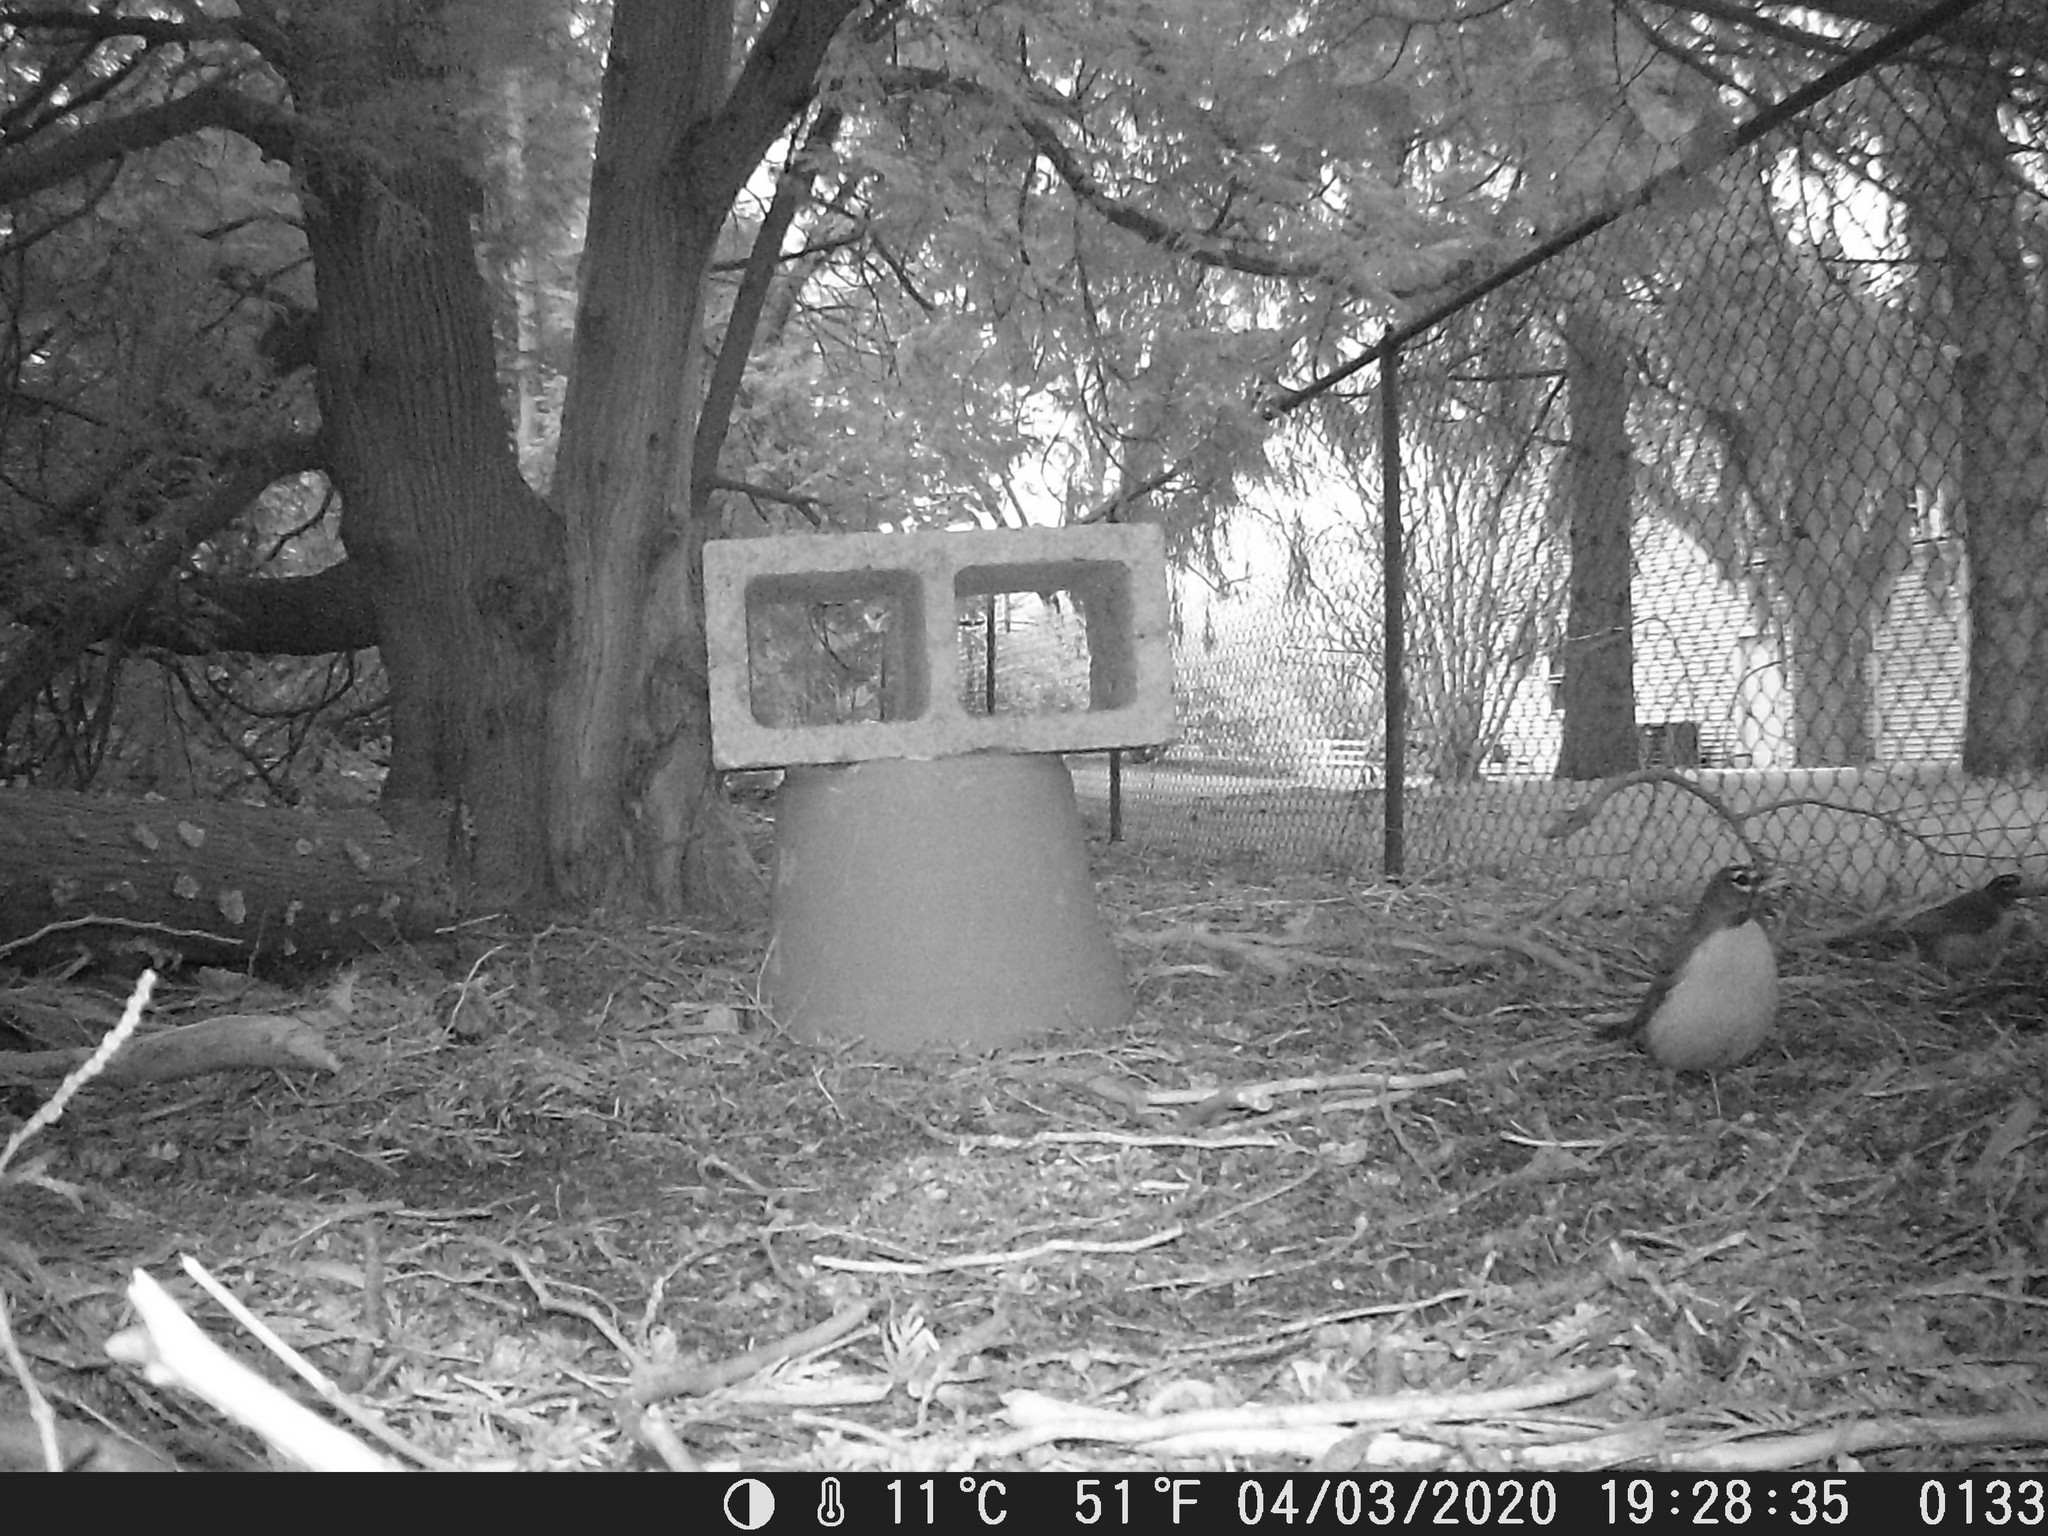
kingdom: Animalia
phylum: Chordata
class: Aves
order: Passeriformes
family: Turdidae
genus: Turdus
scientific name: Turdus migratorius
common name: American robin
